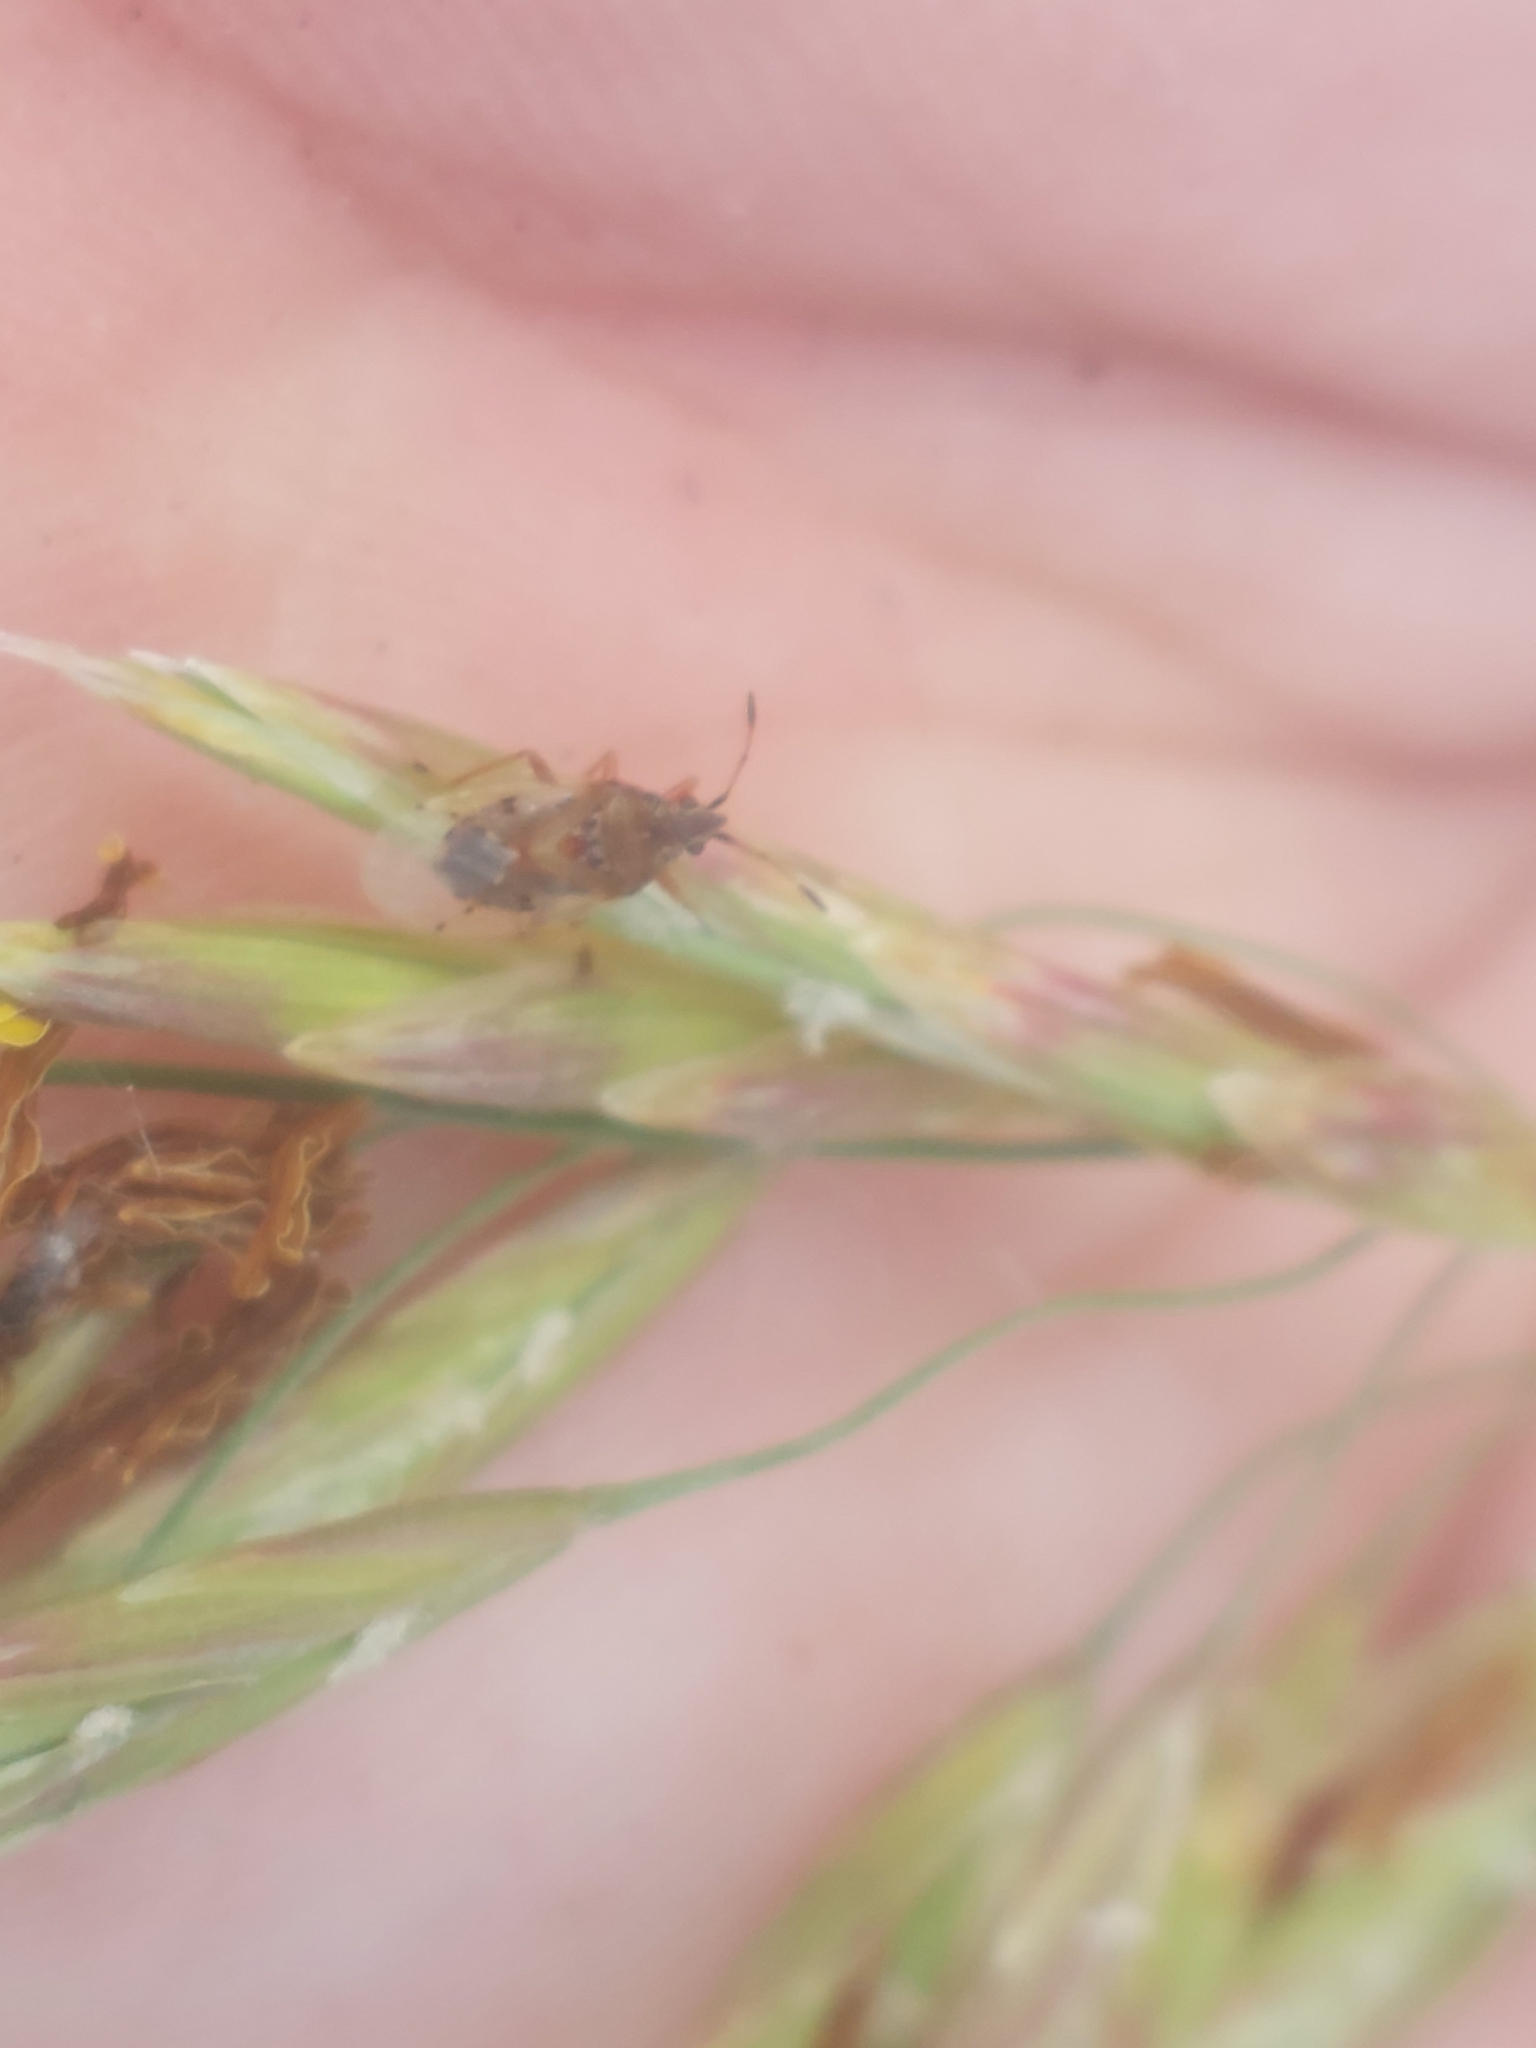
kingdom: Animalia
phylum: Arthropoda
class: Insecta
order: Hemiptera
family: Lygaeidae
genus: Kleidocerys
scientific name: Kleidocerys resedae
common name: Birch catkin bug
